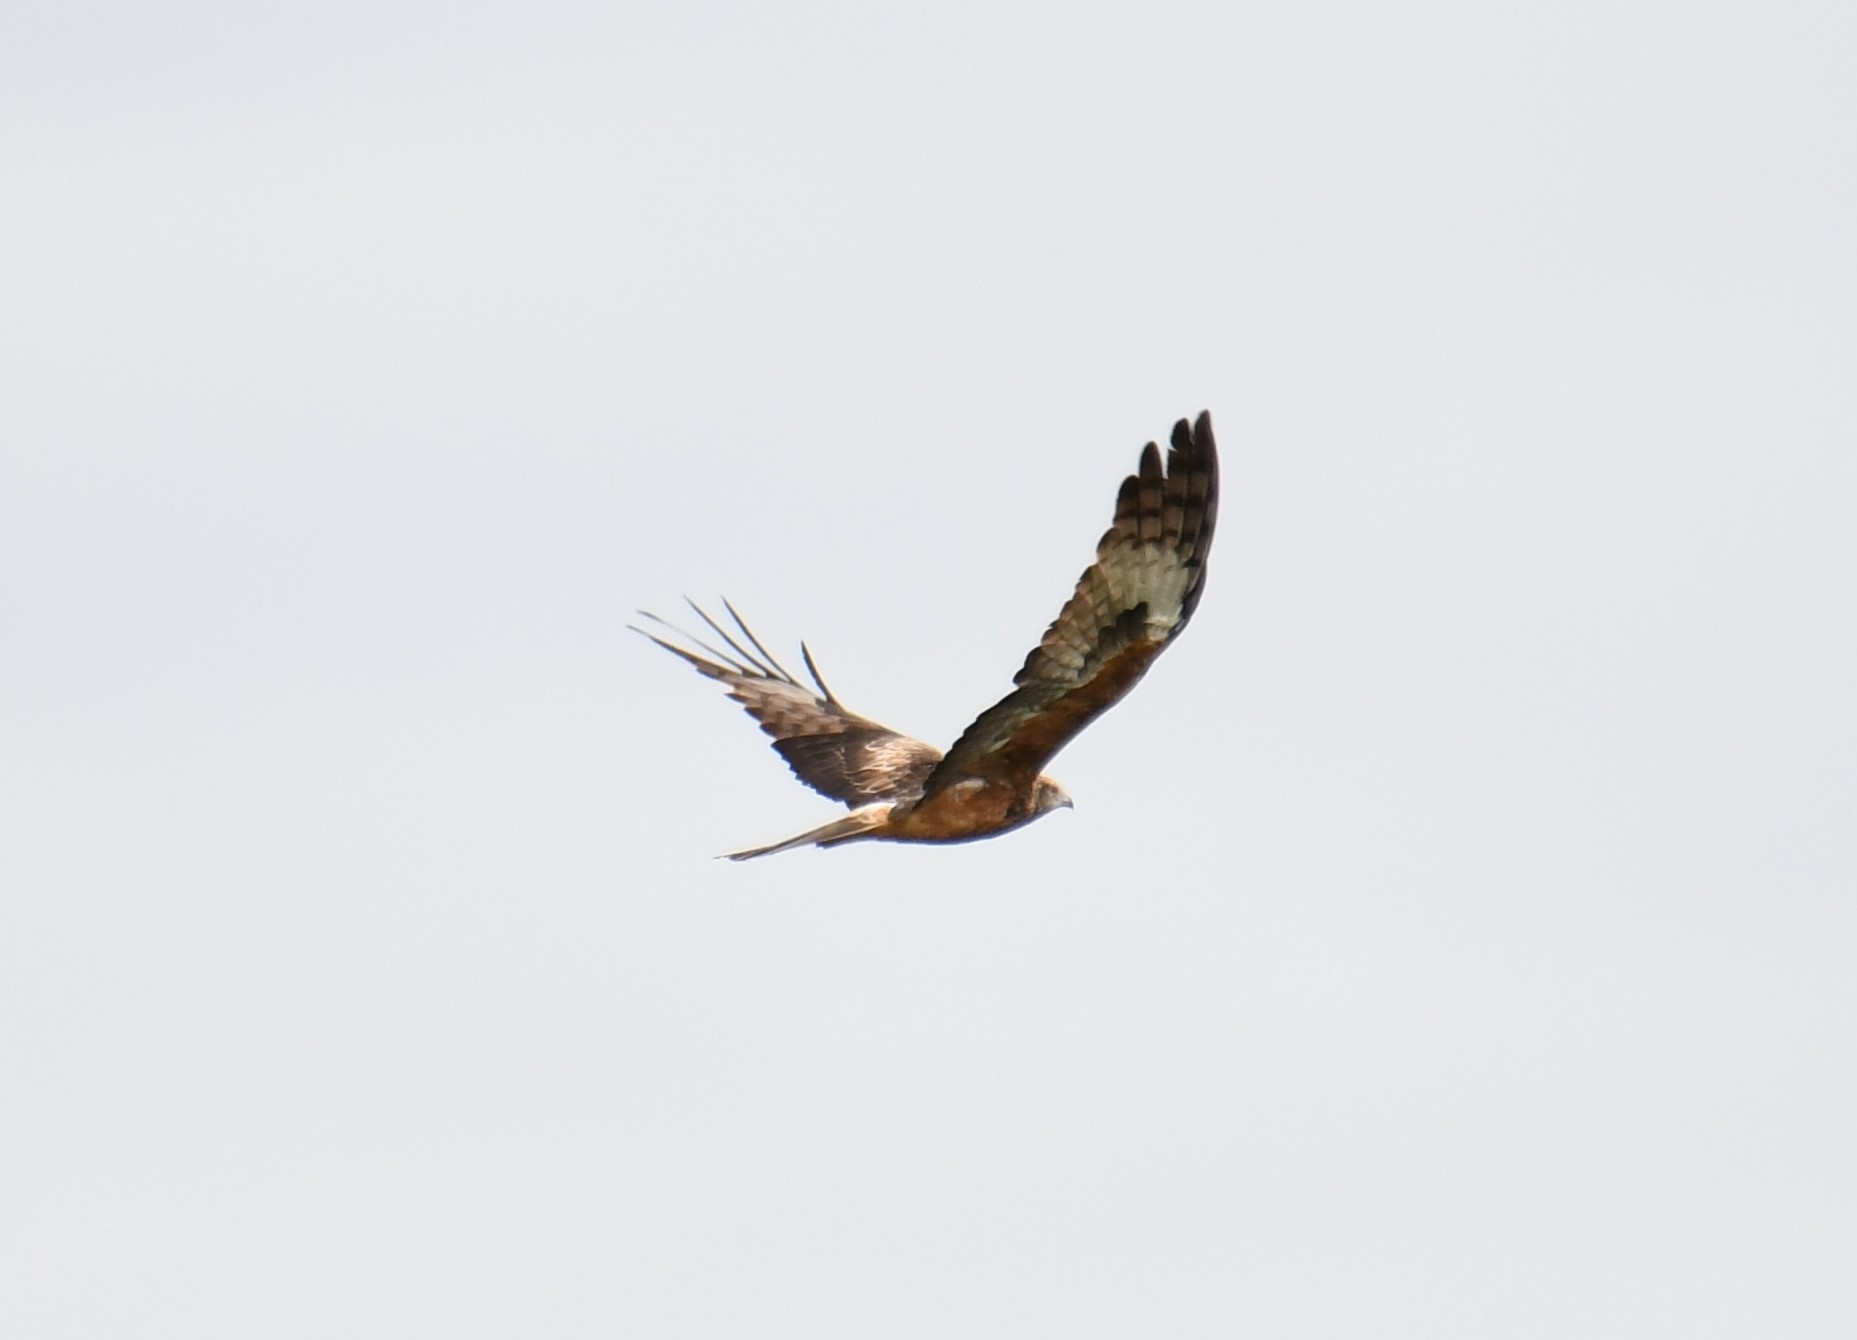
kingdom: Animalia
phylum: Chordata
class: Aves
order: Accipitriformes
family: Accipitridae
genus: Lophoictinia
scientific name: Lophoictinia isura
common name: Square-tailed kite
